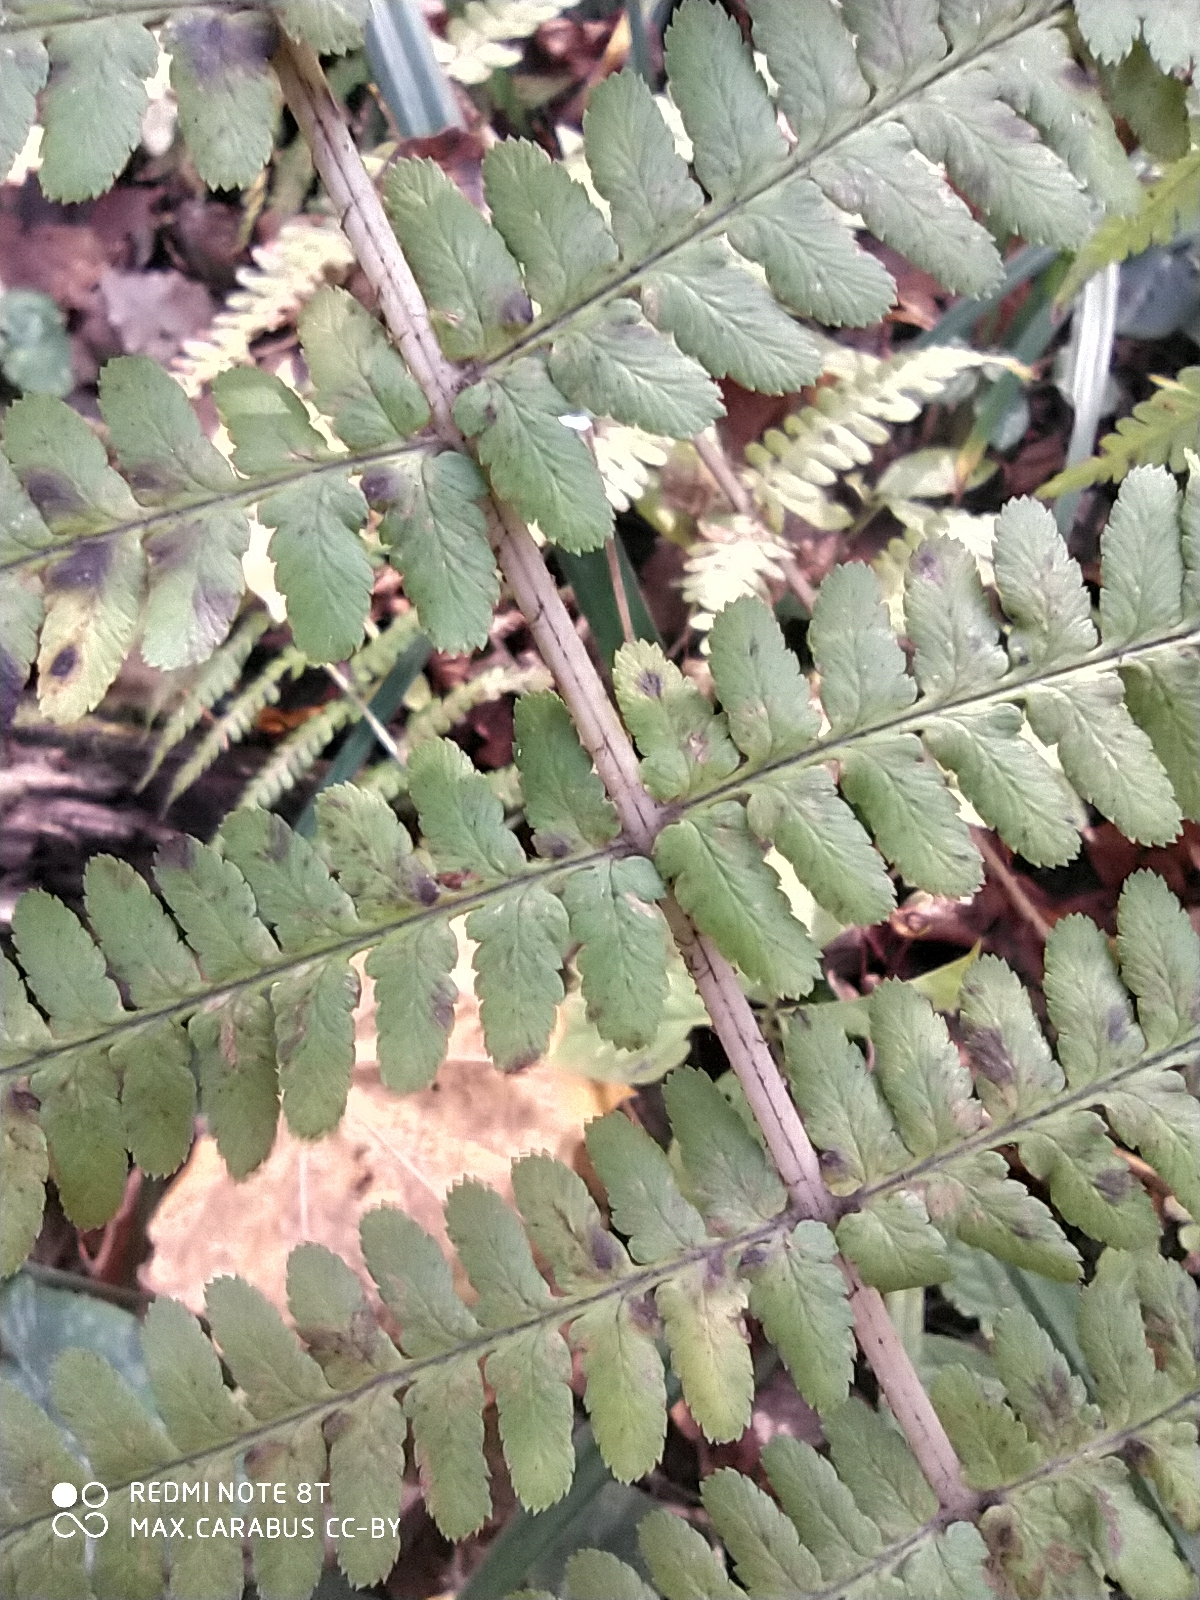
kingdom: Plantae
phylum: Tracheophyta
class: Polypodiopsida
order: Polypodiales
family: Dryopteridaceae
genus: Dryopteris
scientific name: Dryopteris filix-mas
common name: Male fern
